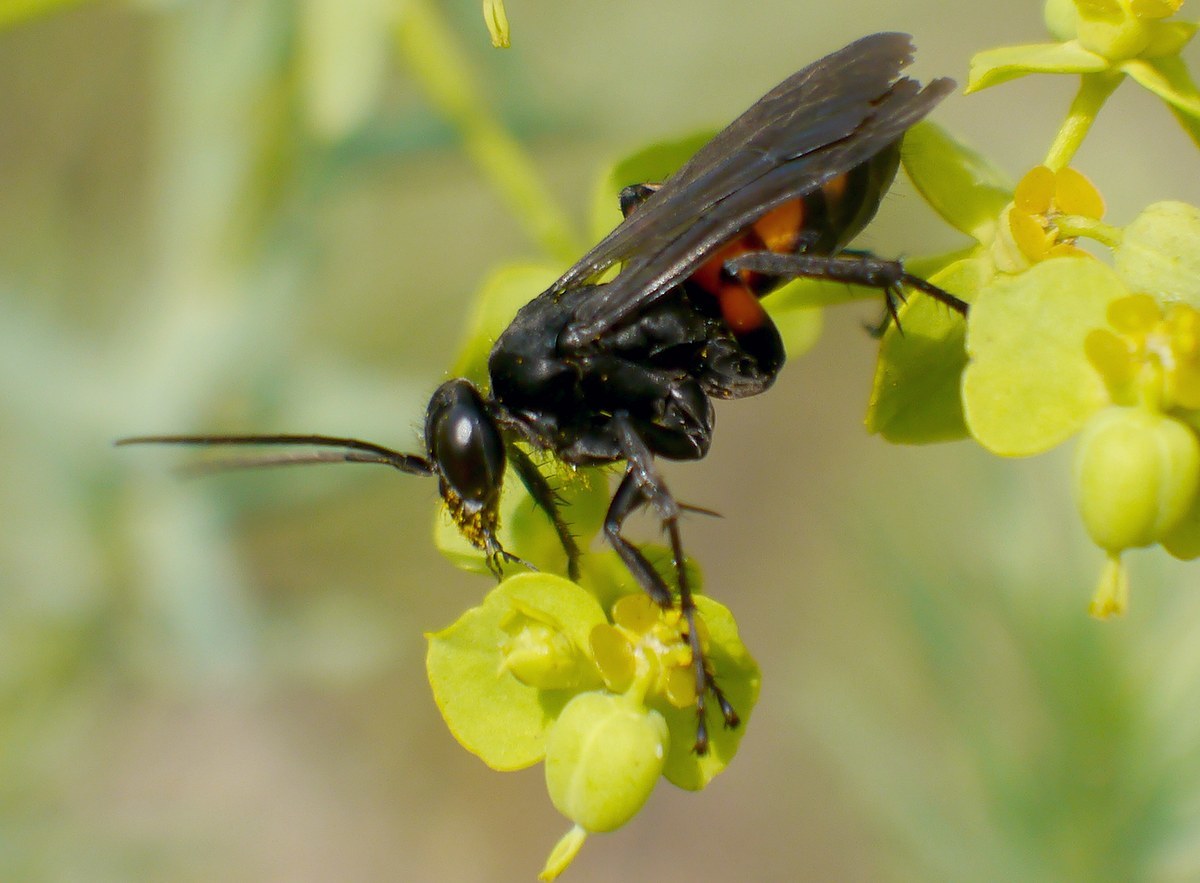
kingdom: Animalia
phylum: Arthropoda
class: Insecta
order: Hymenoptera
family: Pompilidae
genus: Anoplius
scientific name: Anoplius viaticus
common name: Black banded spider wasp
